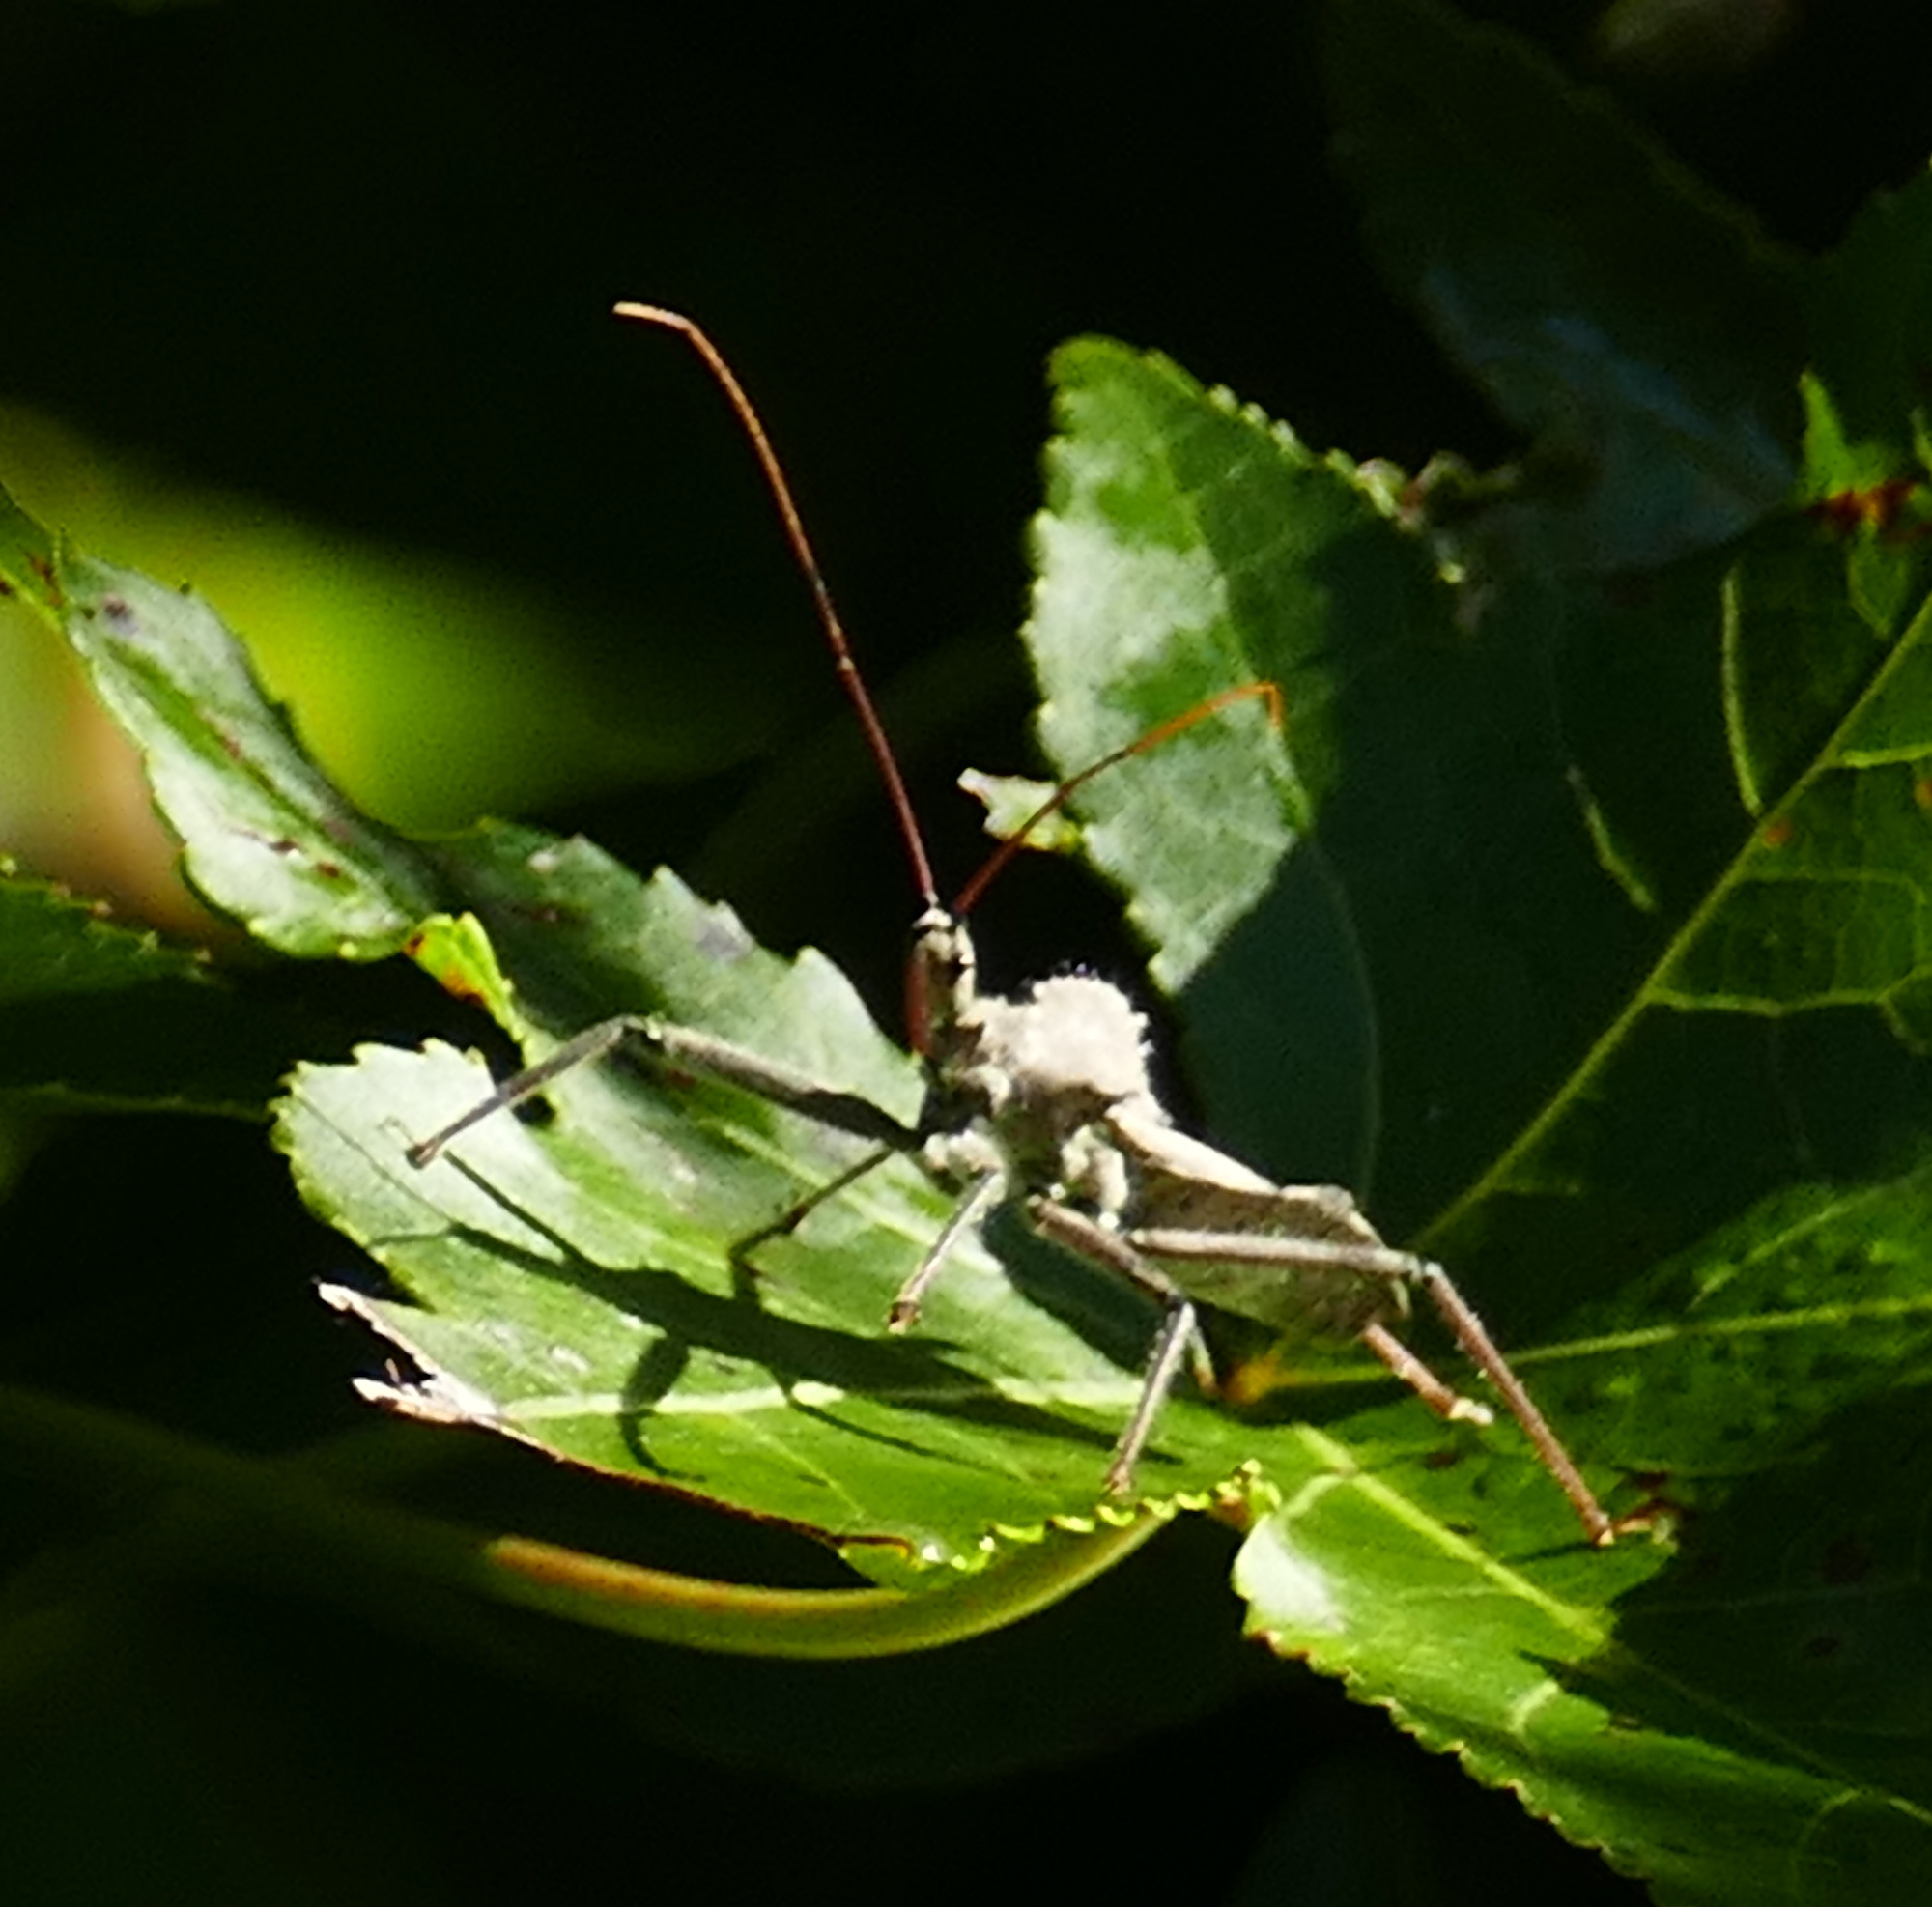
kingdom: Animalia
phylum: Arthropoda
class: Insecta
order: Hemiptera
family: Reduviidae
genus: Arilus
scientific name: Arilus cristatus
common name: North american wheel bug
